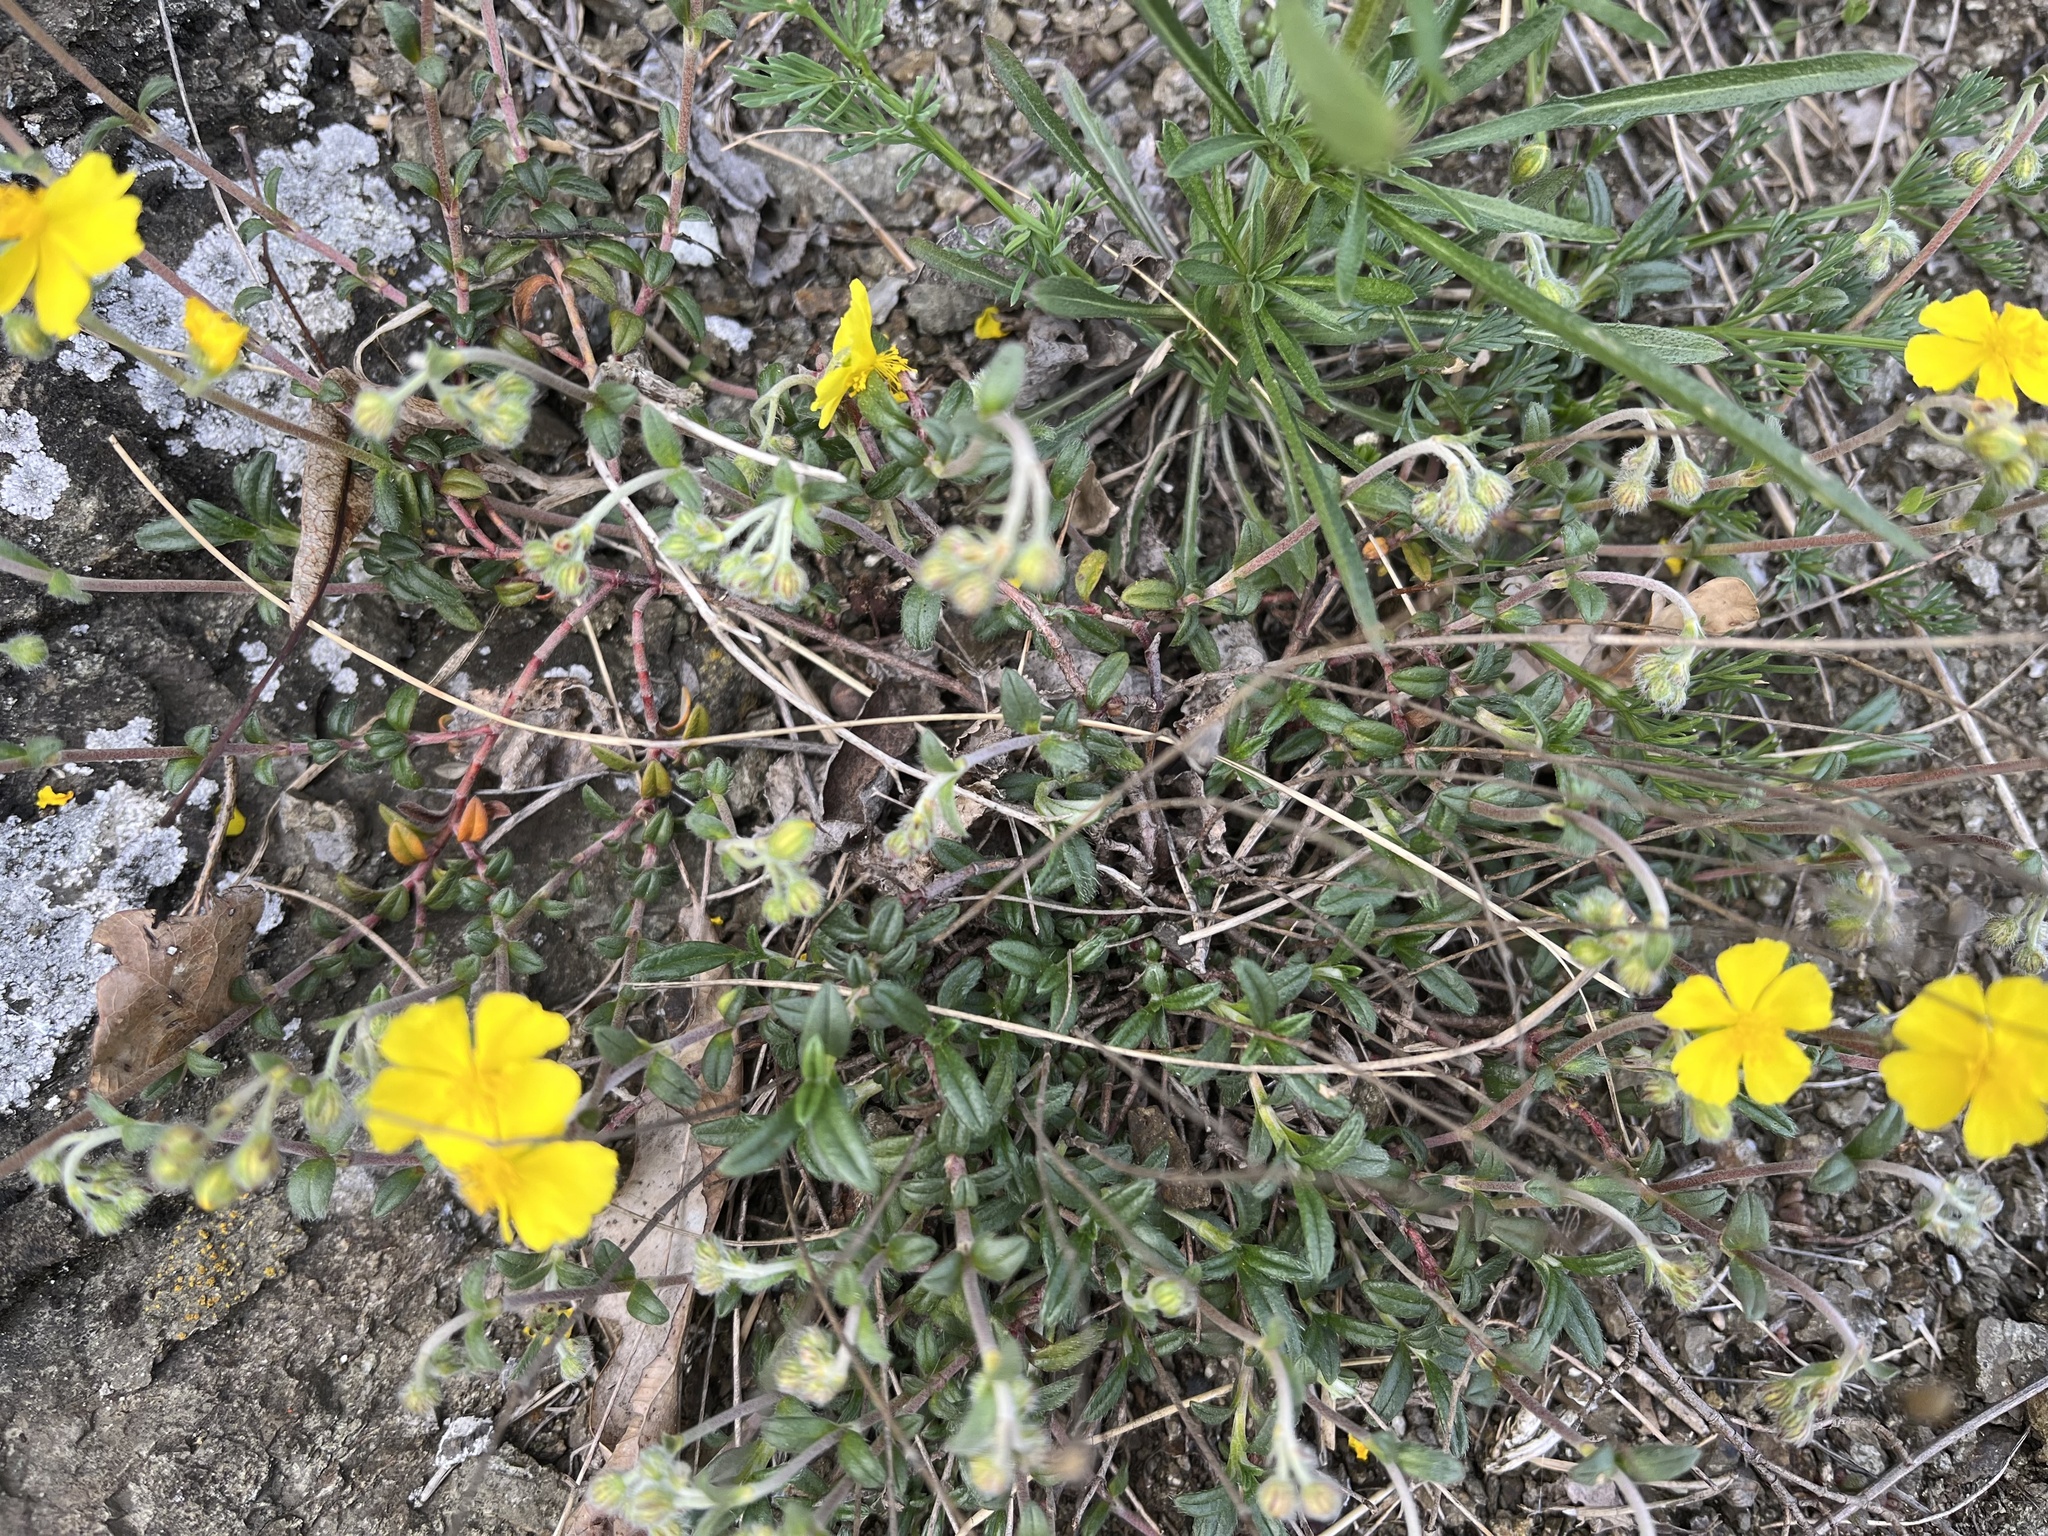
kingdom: Plantae
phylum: Tracheophyta
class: Magnoliopsida
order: Malvales
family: Cistaceae
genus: Helianthemum
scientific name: Helianthemum canum
